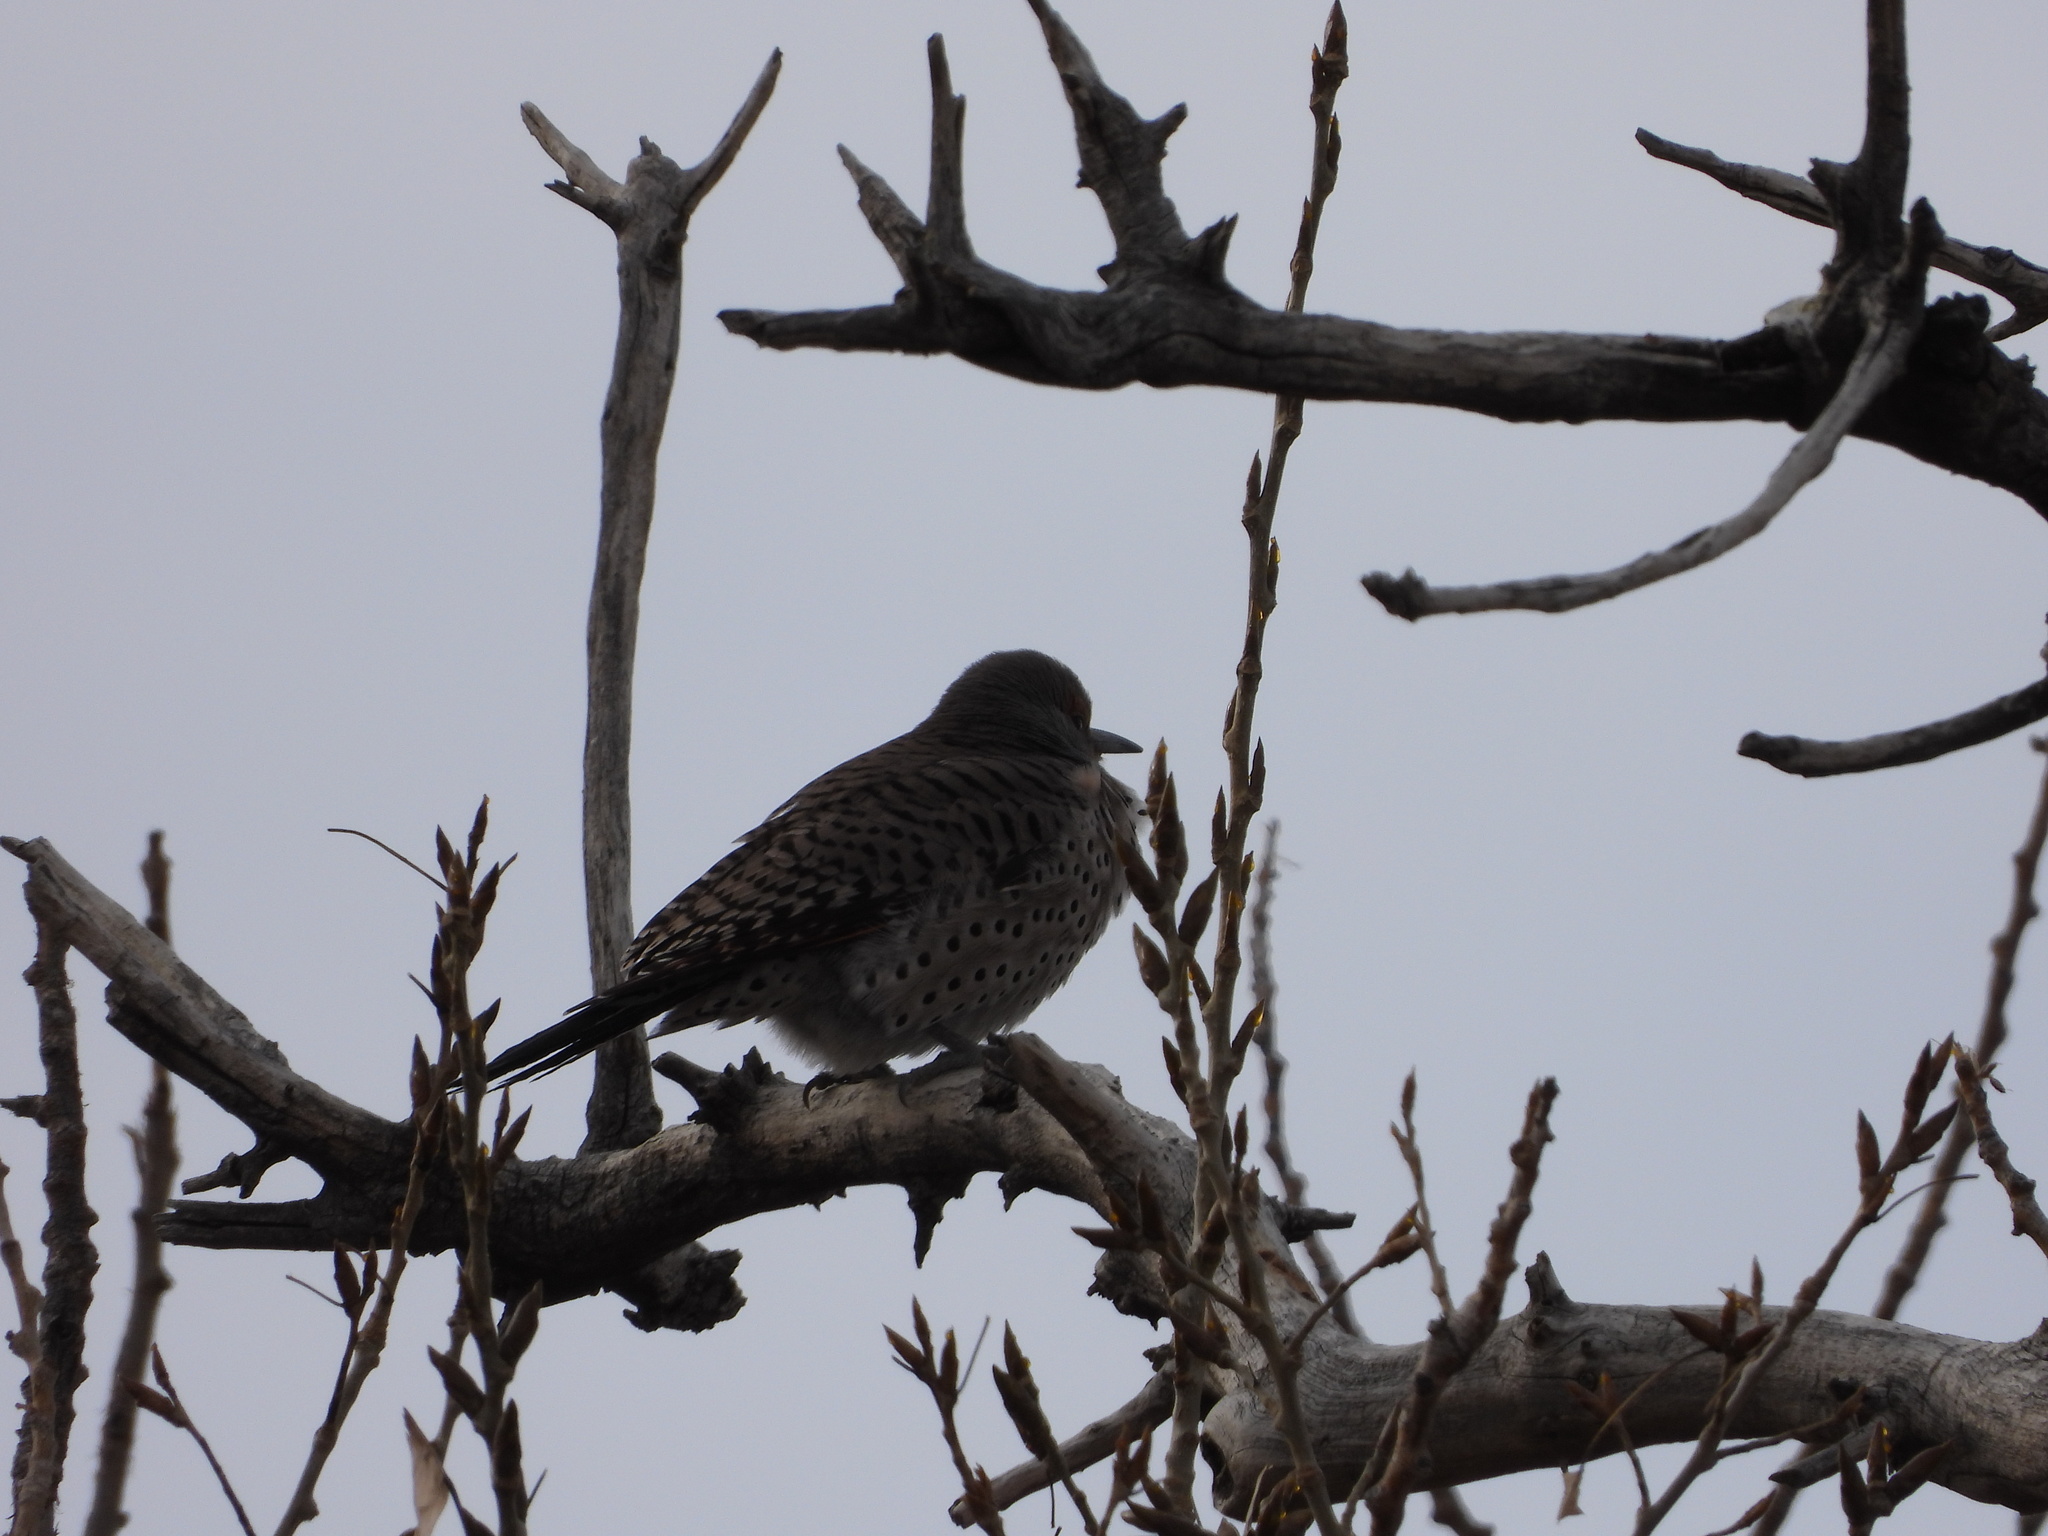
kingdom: Animalia
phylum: Chordata
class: Aves
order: Piciformes
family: Picidae
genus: Colaptes
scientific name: Colaptes auratus
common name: Northern flicker
